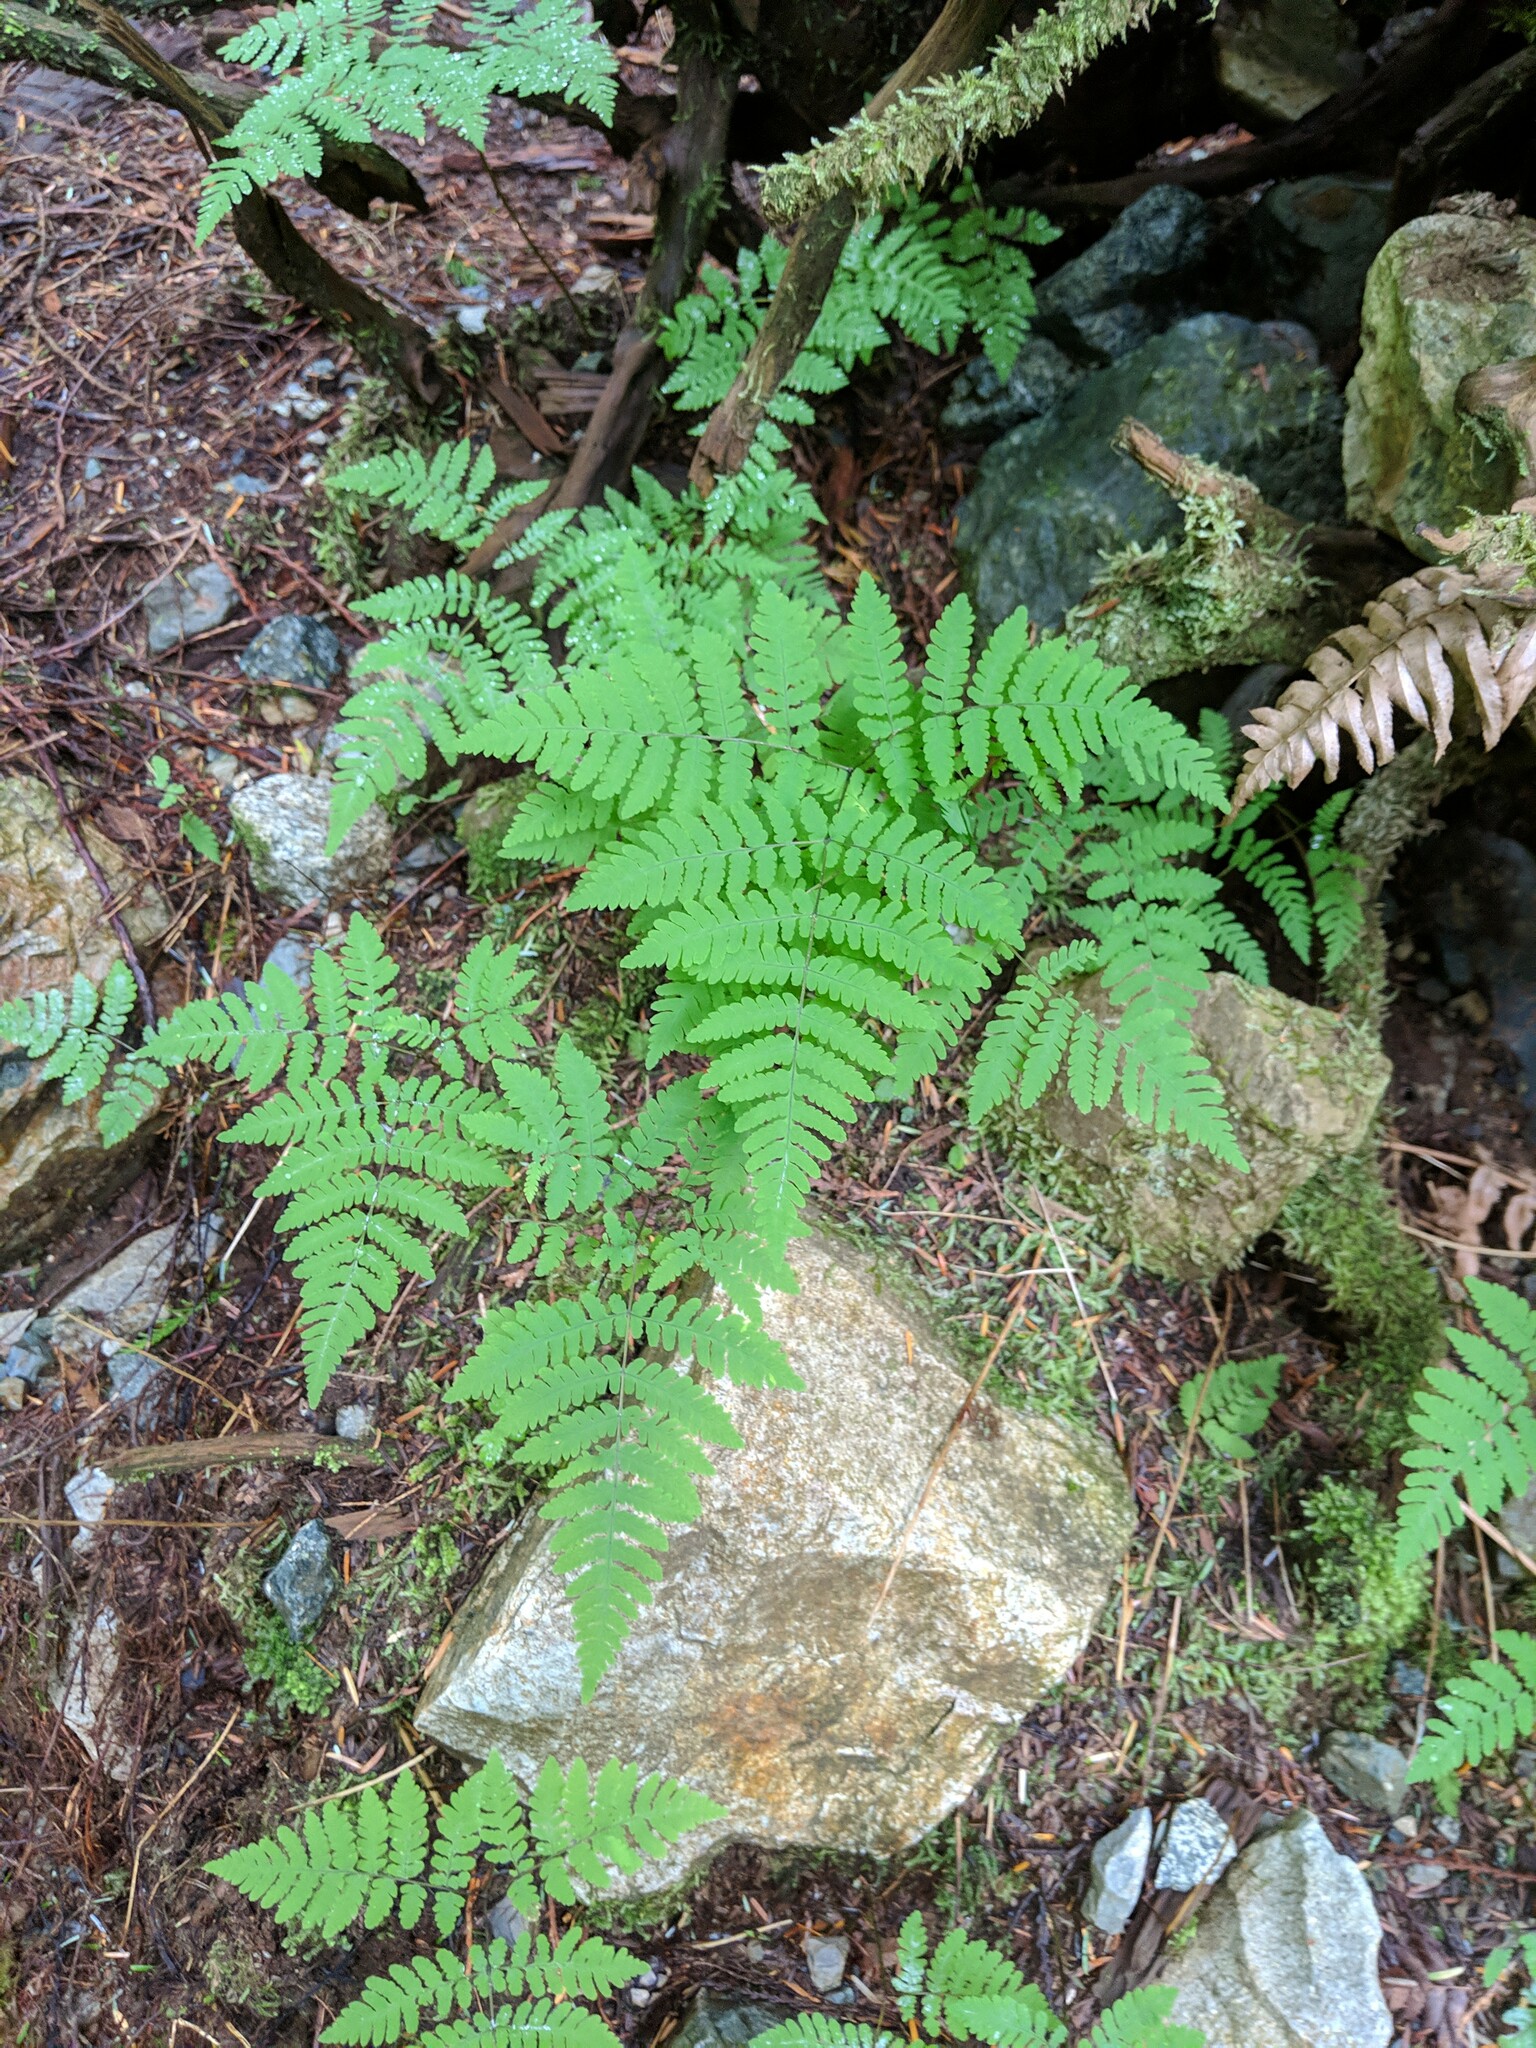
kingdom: Plantae
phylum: Tracheophyta
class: Polypodiopsida
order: Polypodiales
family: Cystopteridaceae
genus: Gymnocarpium
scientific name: Gymnocarpium disjunctum
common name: Western oak fern
